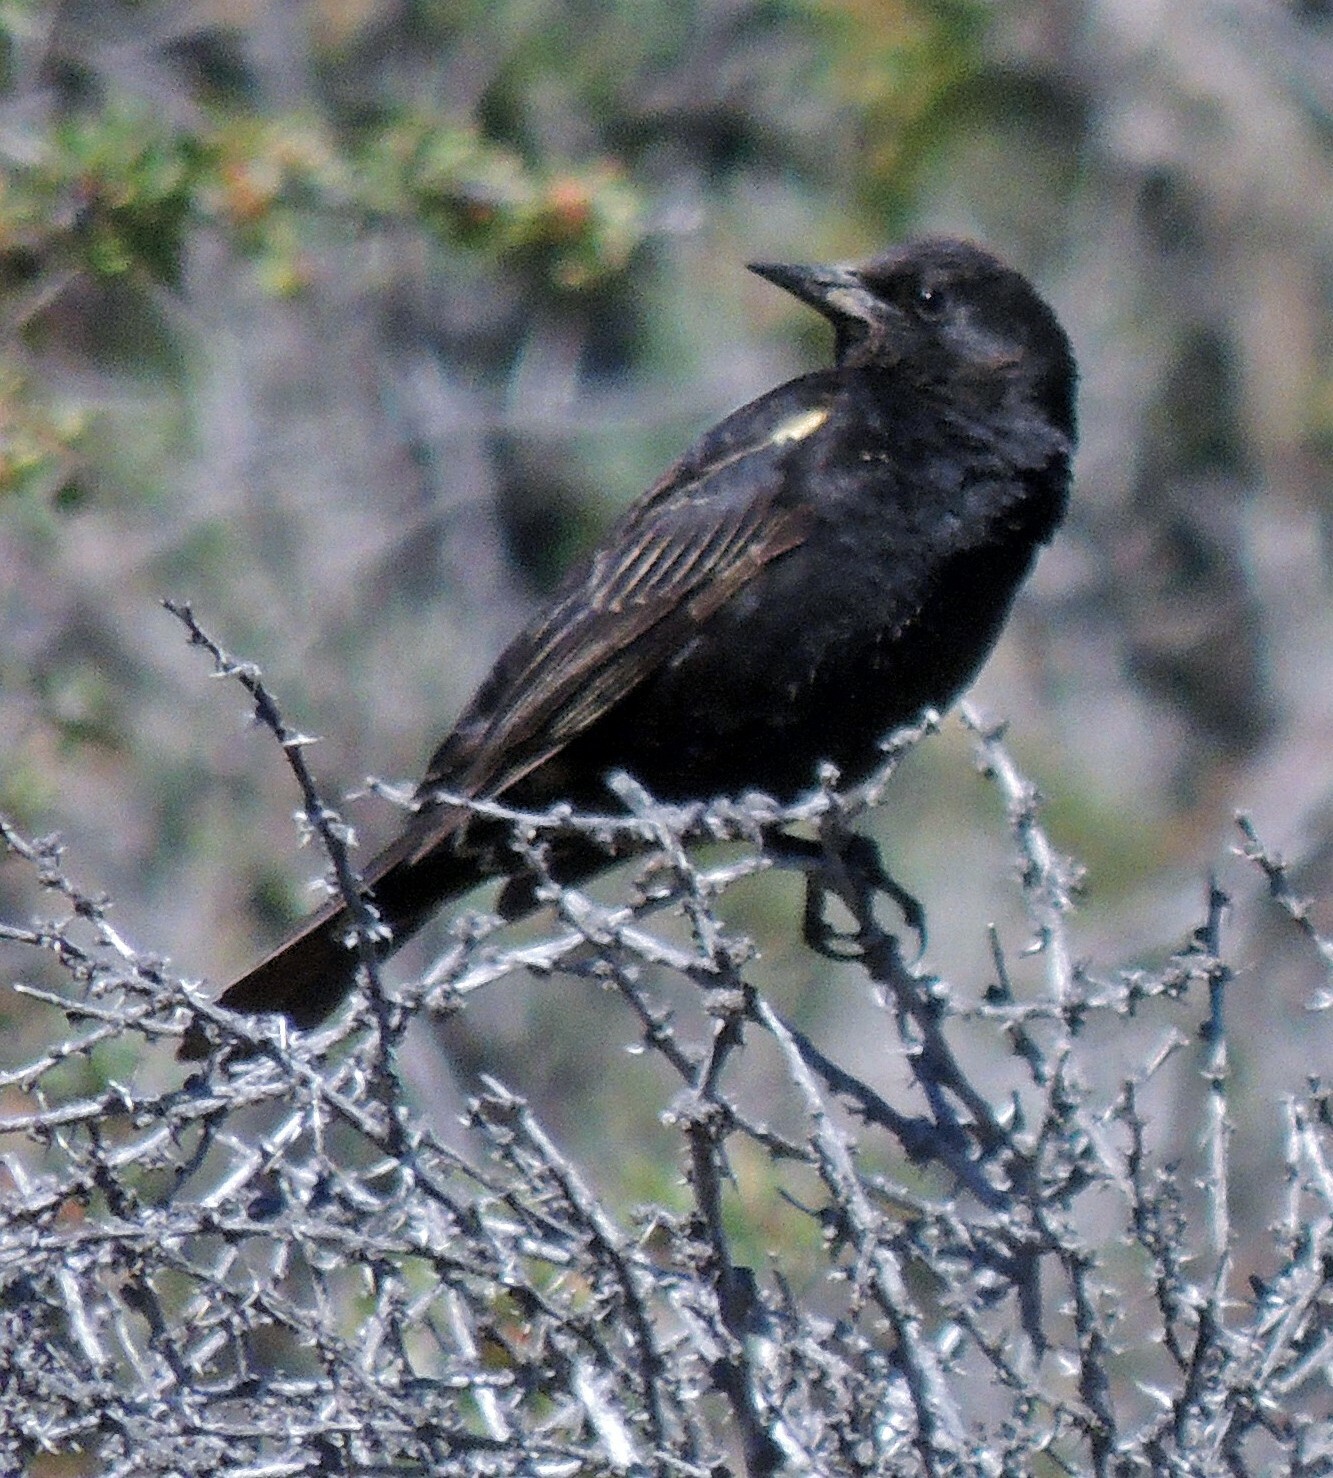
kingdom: Animalia
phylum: Chordata
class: Aves
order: Passeriformes
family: Icteridae
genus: Agelasticus
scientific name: Agelasticus thilius
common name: Yellow-winged blackbird
